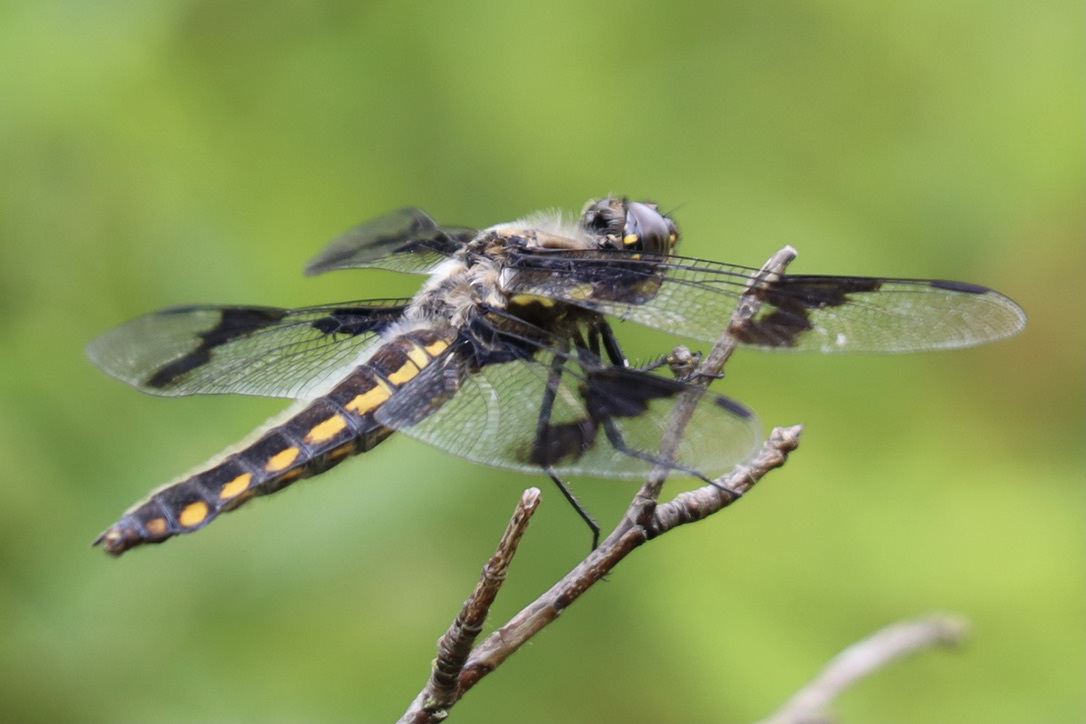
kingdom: Animalia
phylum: Arthropoda
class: Insecta
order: Odonata
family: Libellulidae
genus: Libellula
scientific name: Libellula forensis
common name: Eight-spotted skimmer
